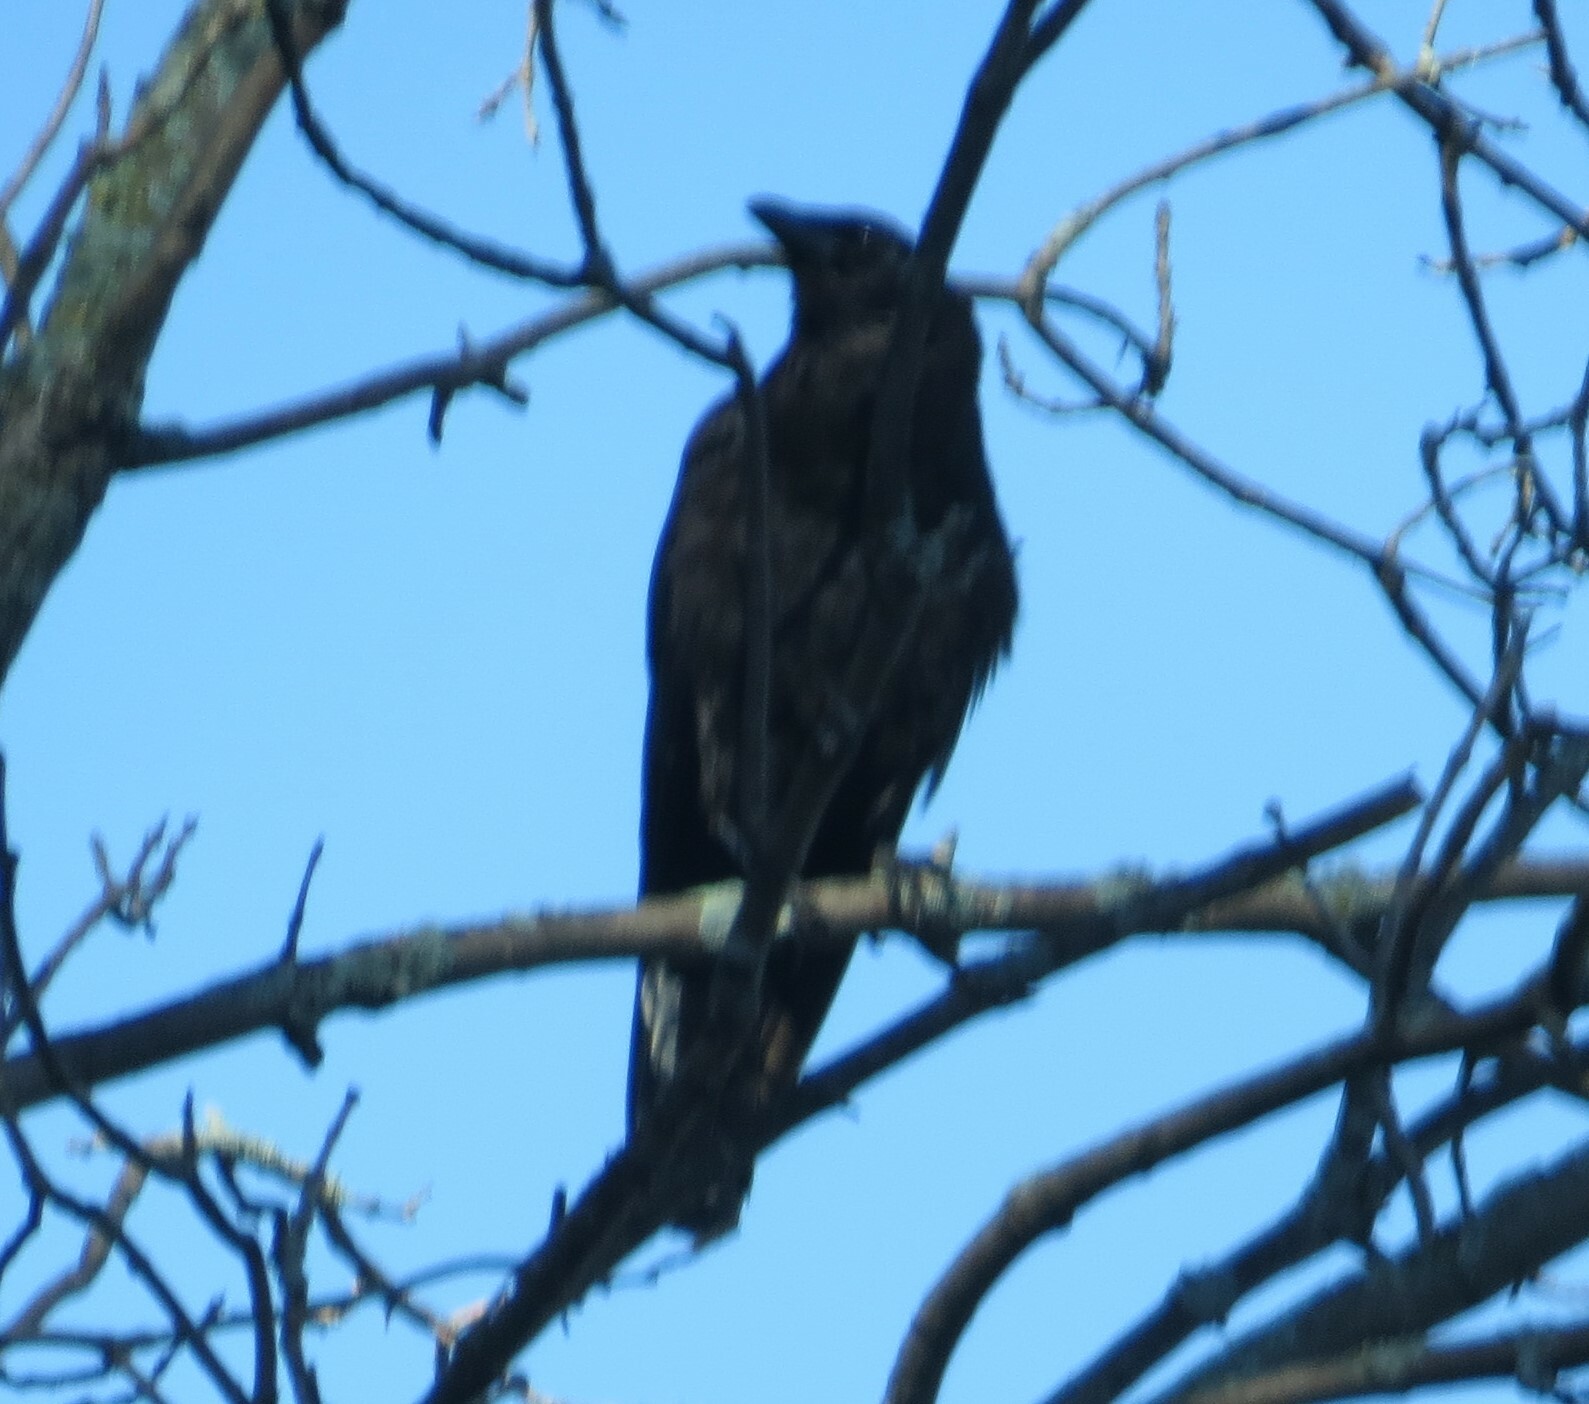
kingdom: Animalia
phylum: Chordata
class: Aves
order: Passeriformes
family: Corvidae
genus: Corvus
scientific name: Corvus brachyrhynchos
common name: American crow
